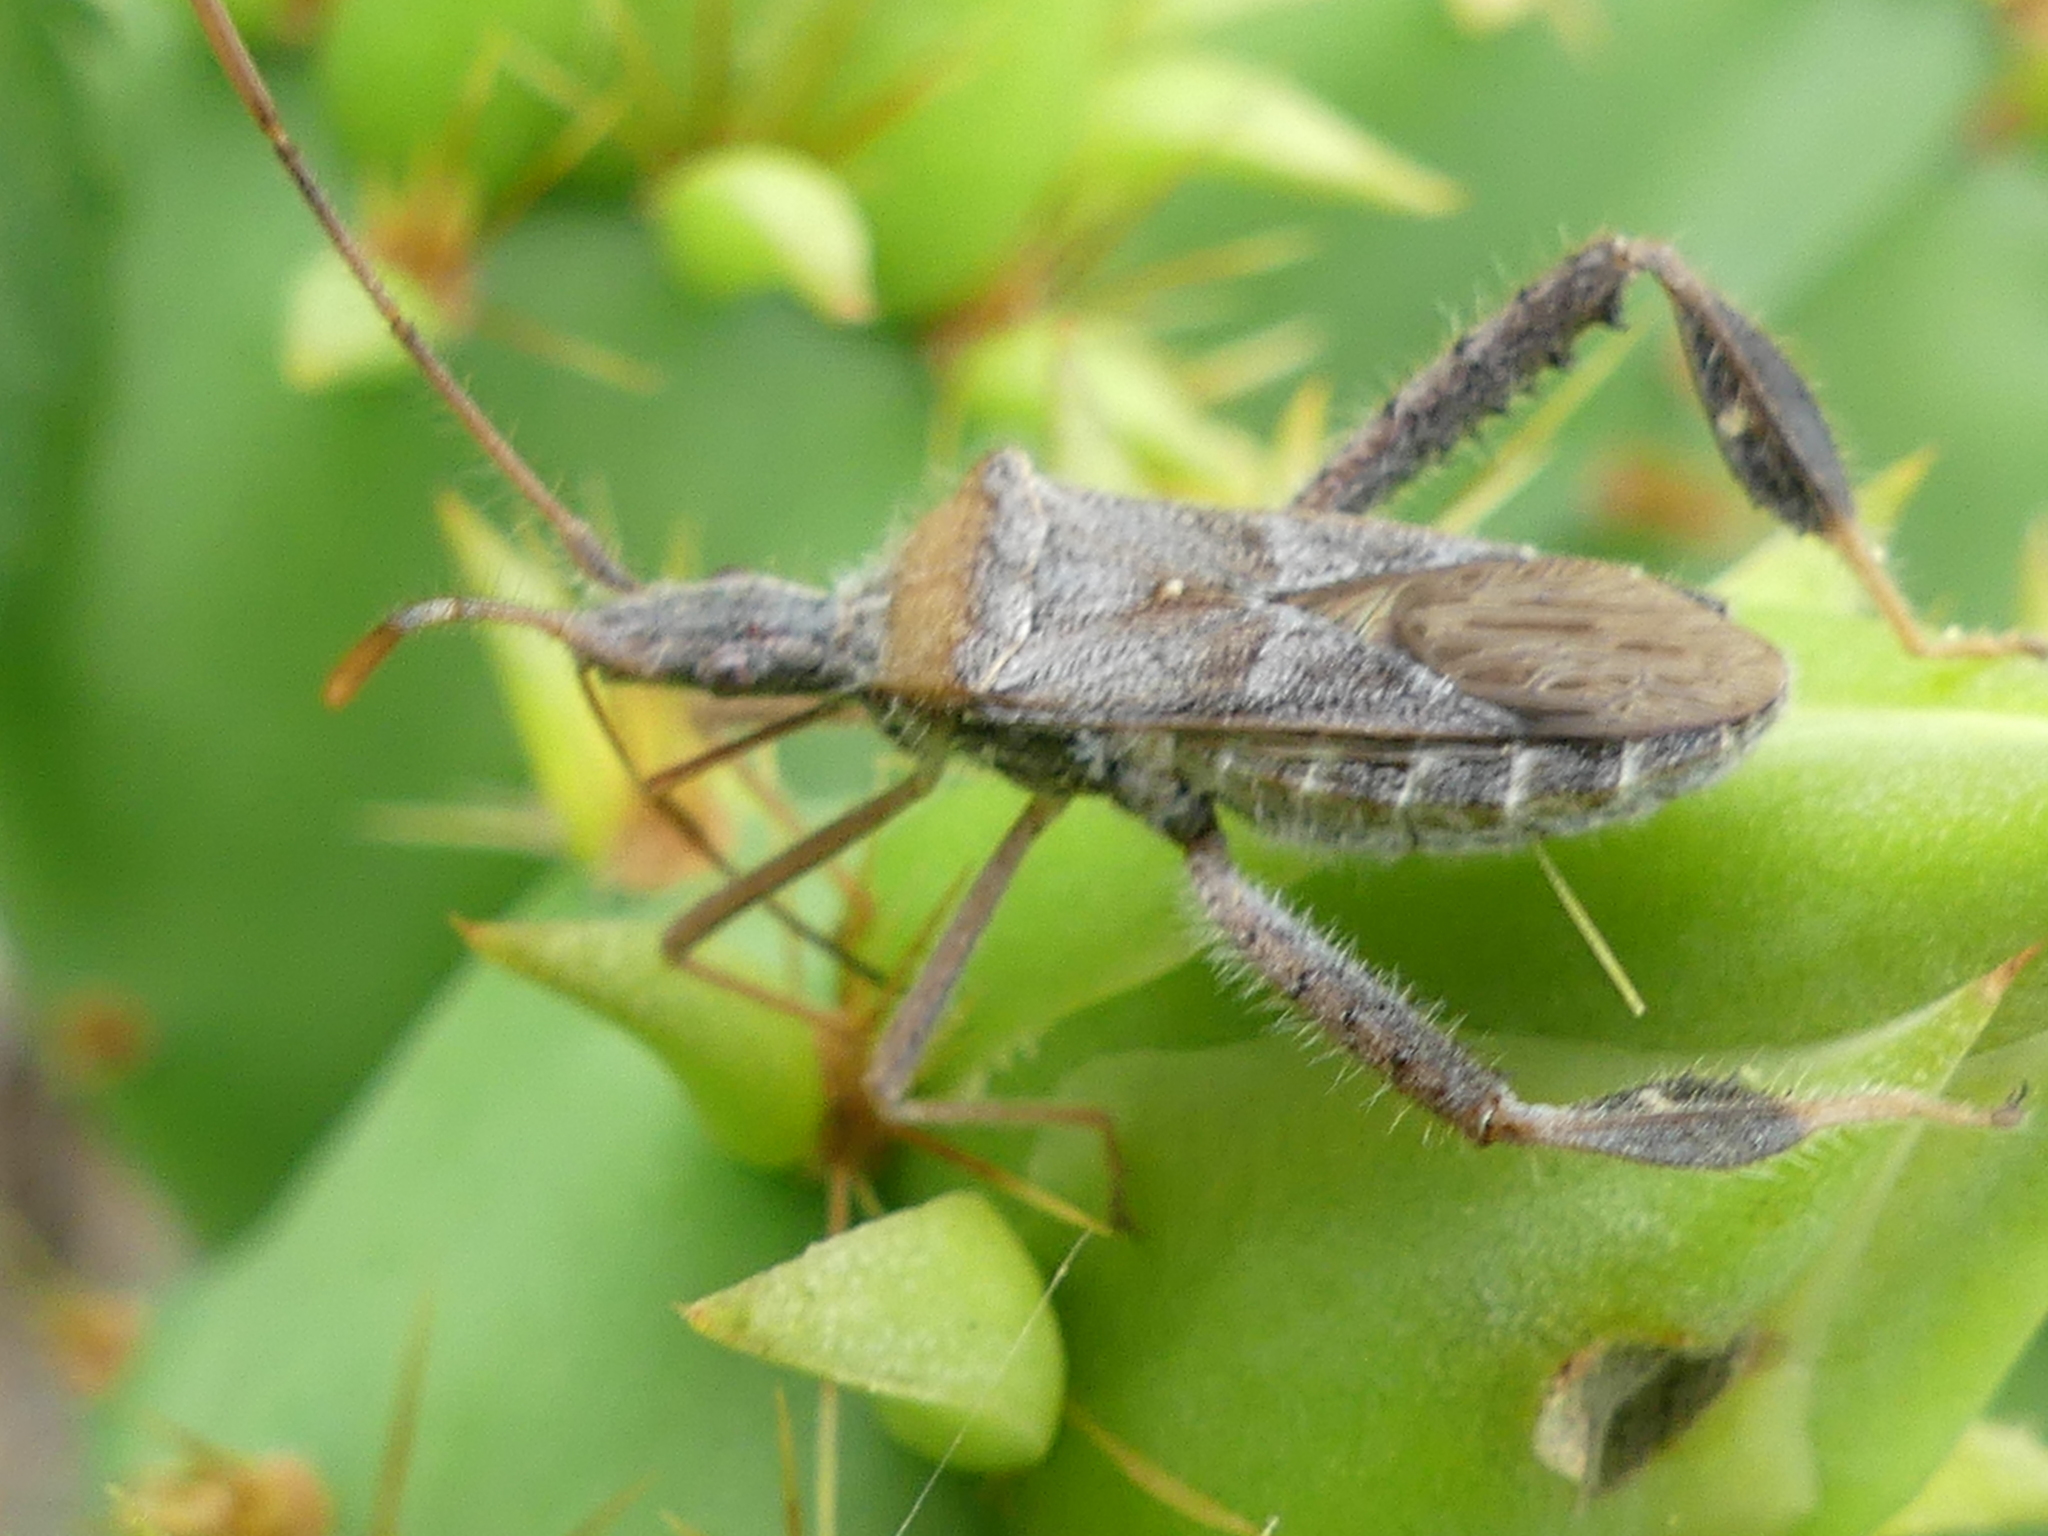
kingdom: Animalia
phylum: Arthropoda
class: Insecta
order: Hemiptera
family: Coreidae
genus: Narnia
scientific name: Narnia femorata
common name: Leaf-footed cactus bug
